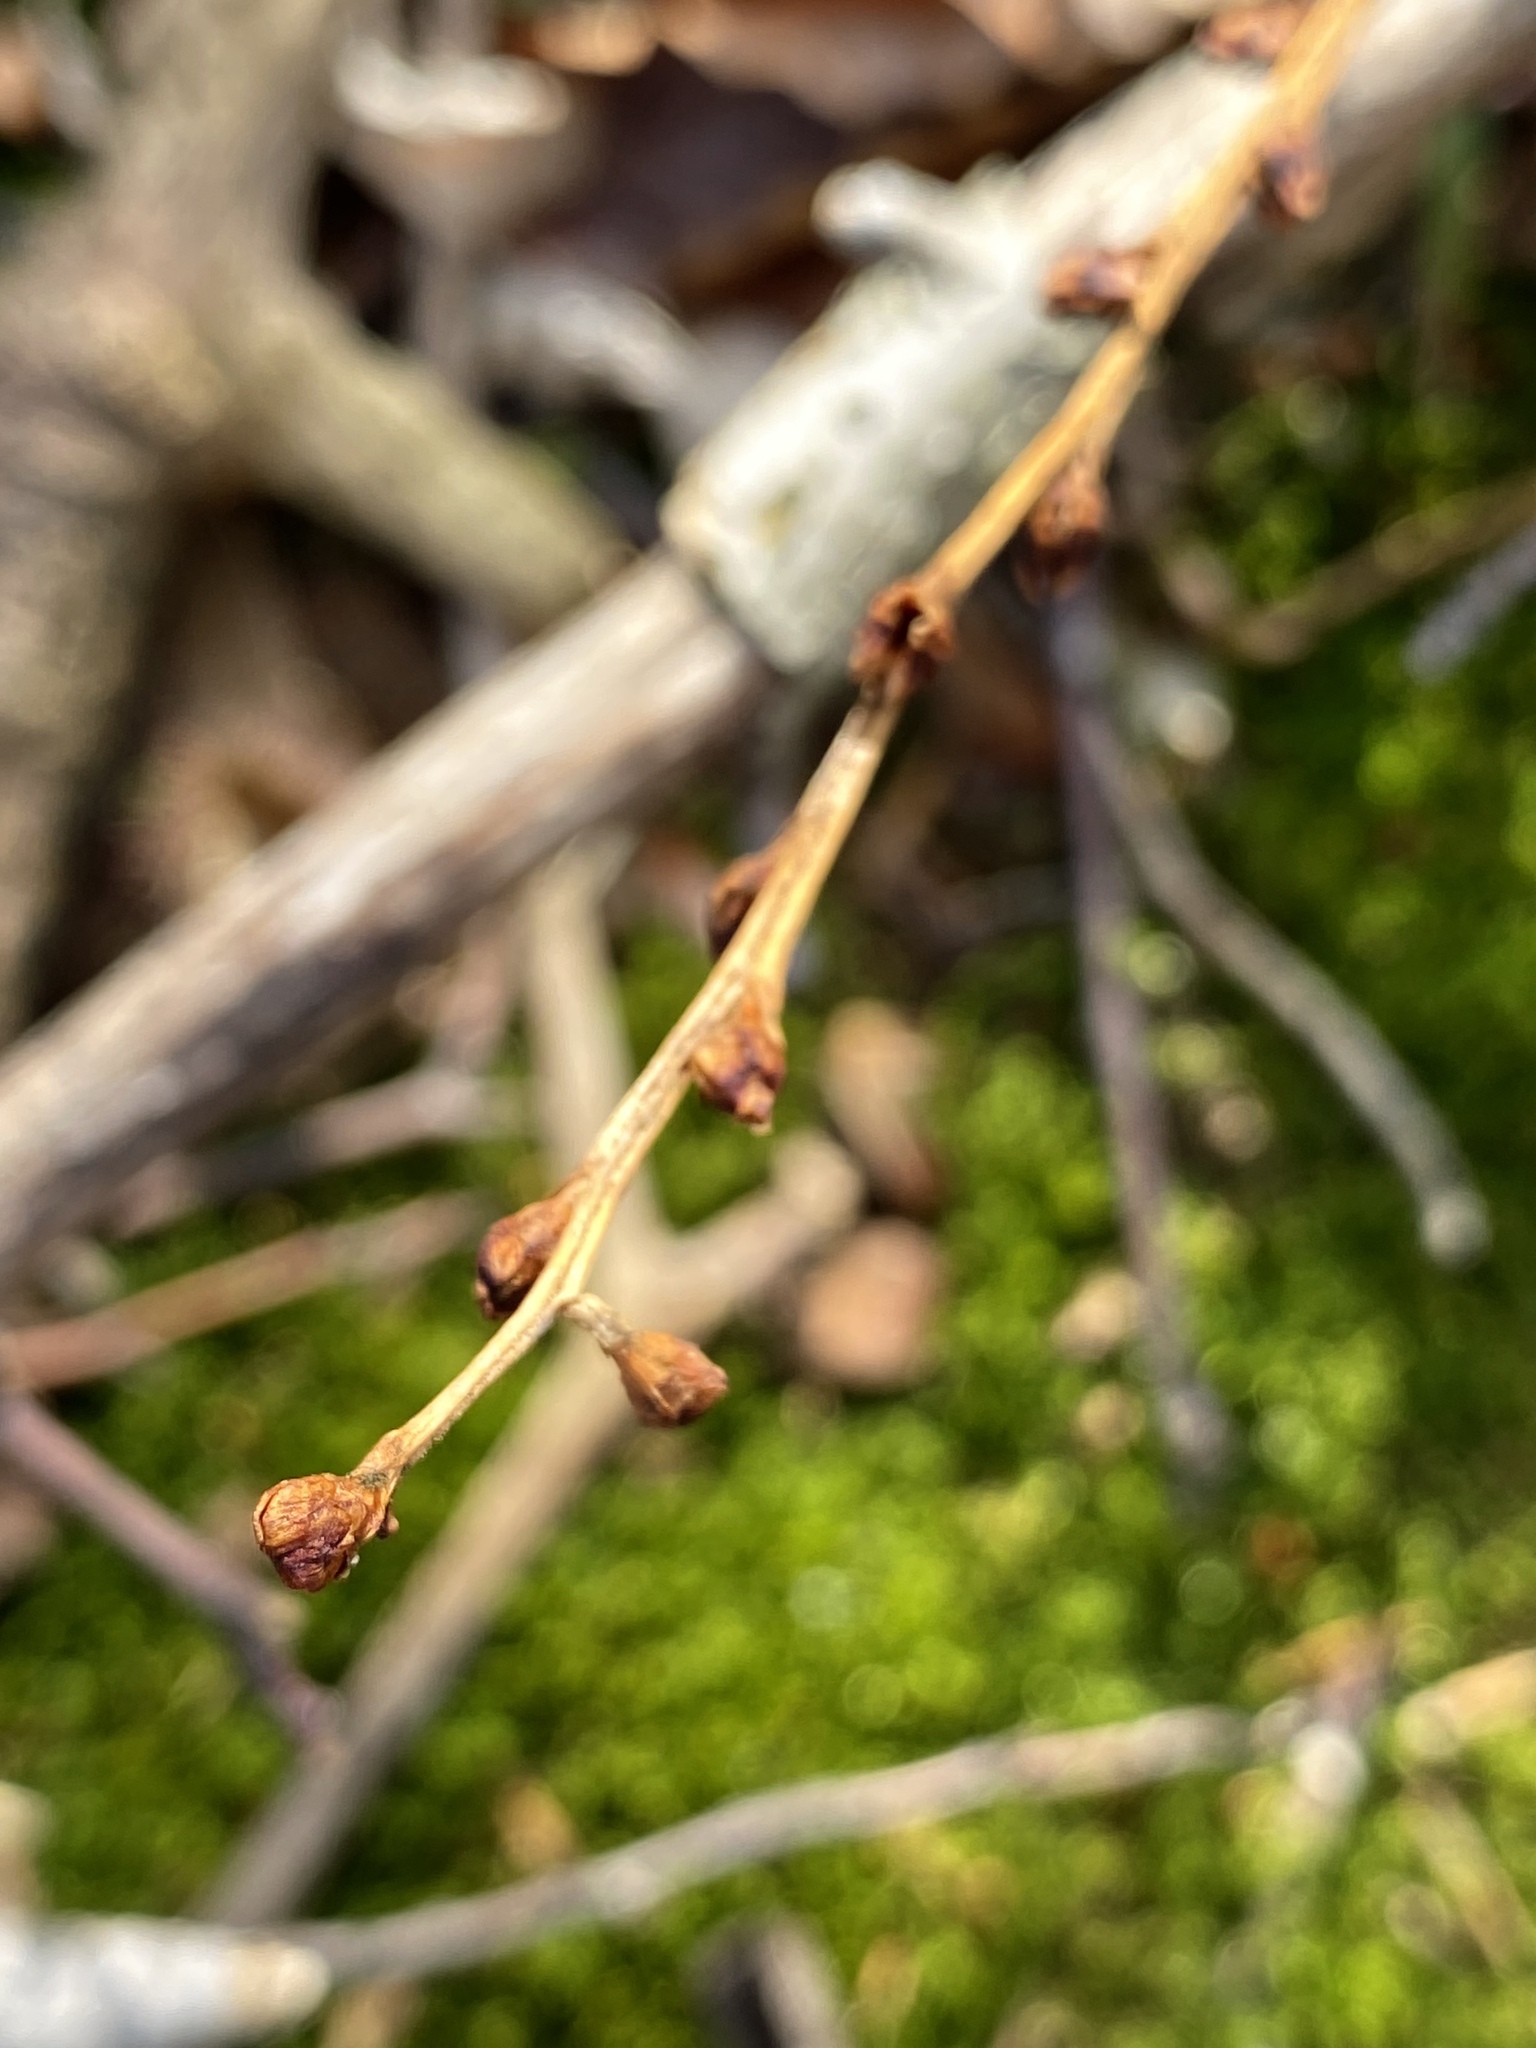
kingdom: Plantae
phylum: Tracheophyta
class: Magnoliopsida
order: Lamiales
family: Orobanchaceae
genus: Epifagus
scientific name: Epifagus virginiana
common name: Beechdrops
